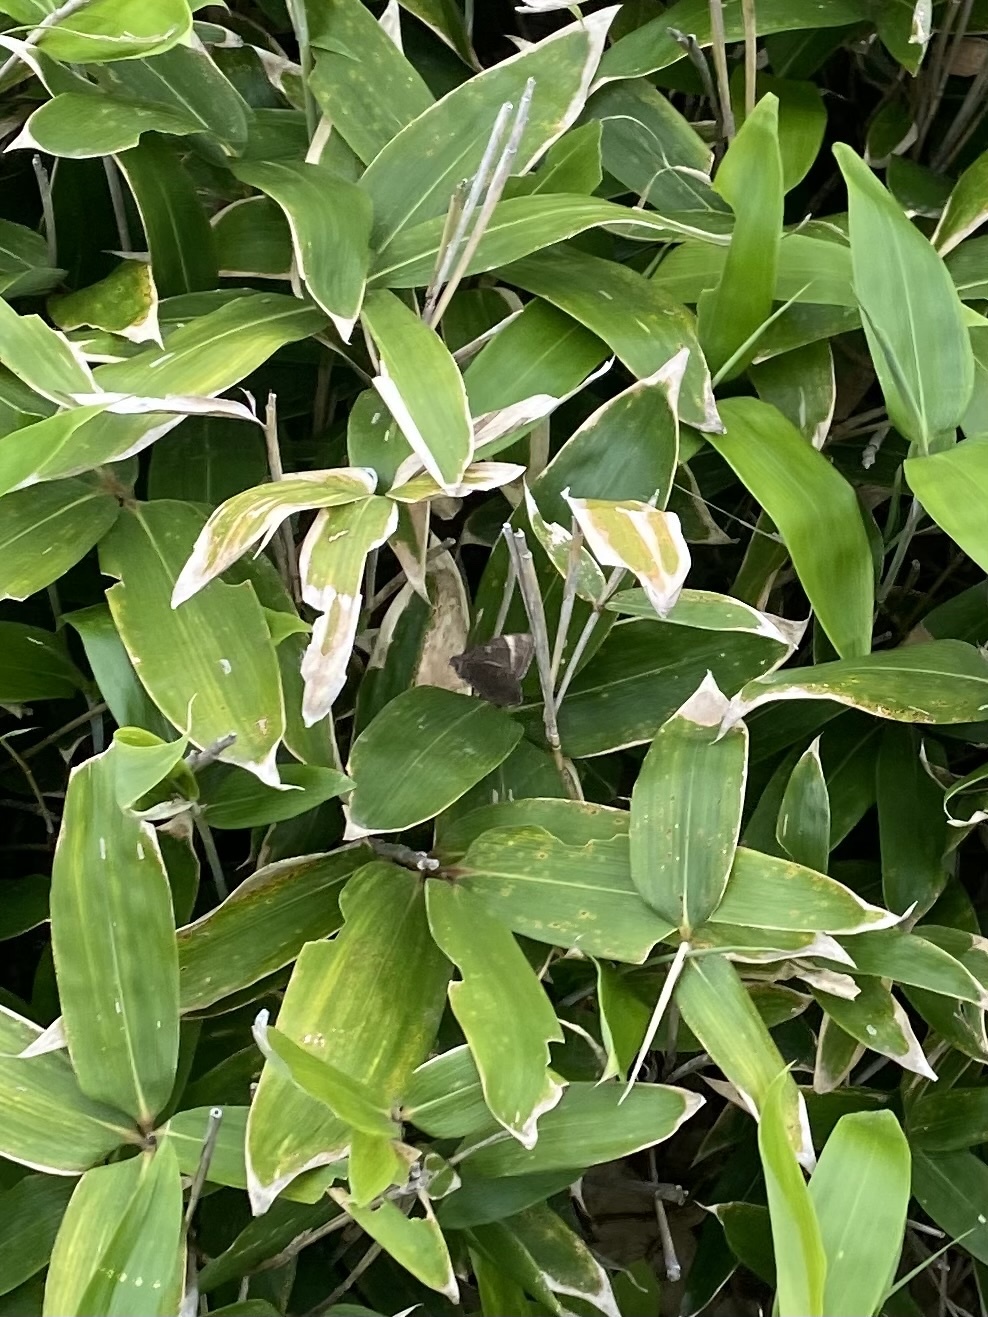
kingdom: Animalia
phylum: Arthropoda
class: Insecta
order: Lepidoptera
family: Nymphalidae
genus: Lethe
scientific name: Lethe diana
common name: Diana treebrown
